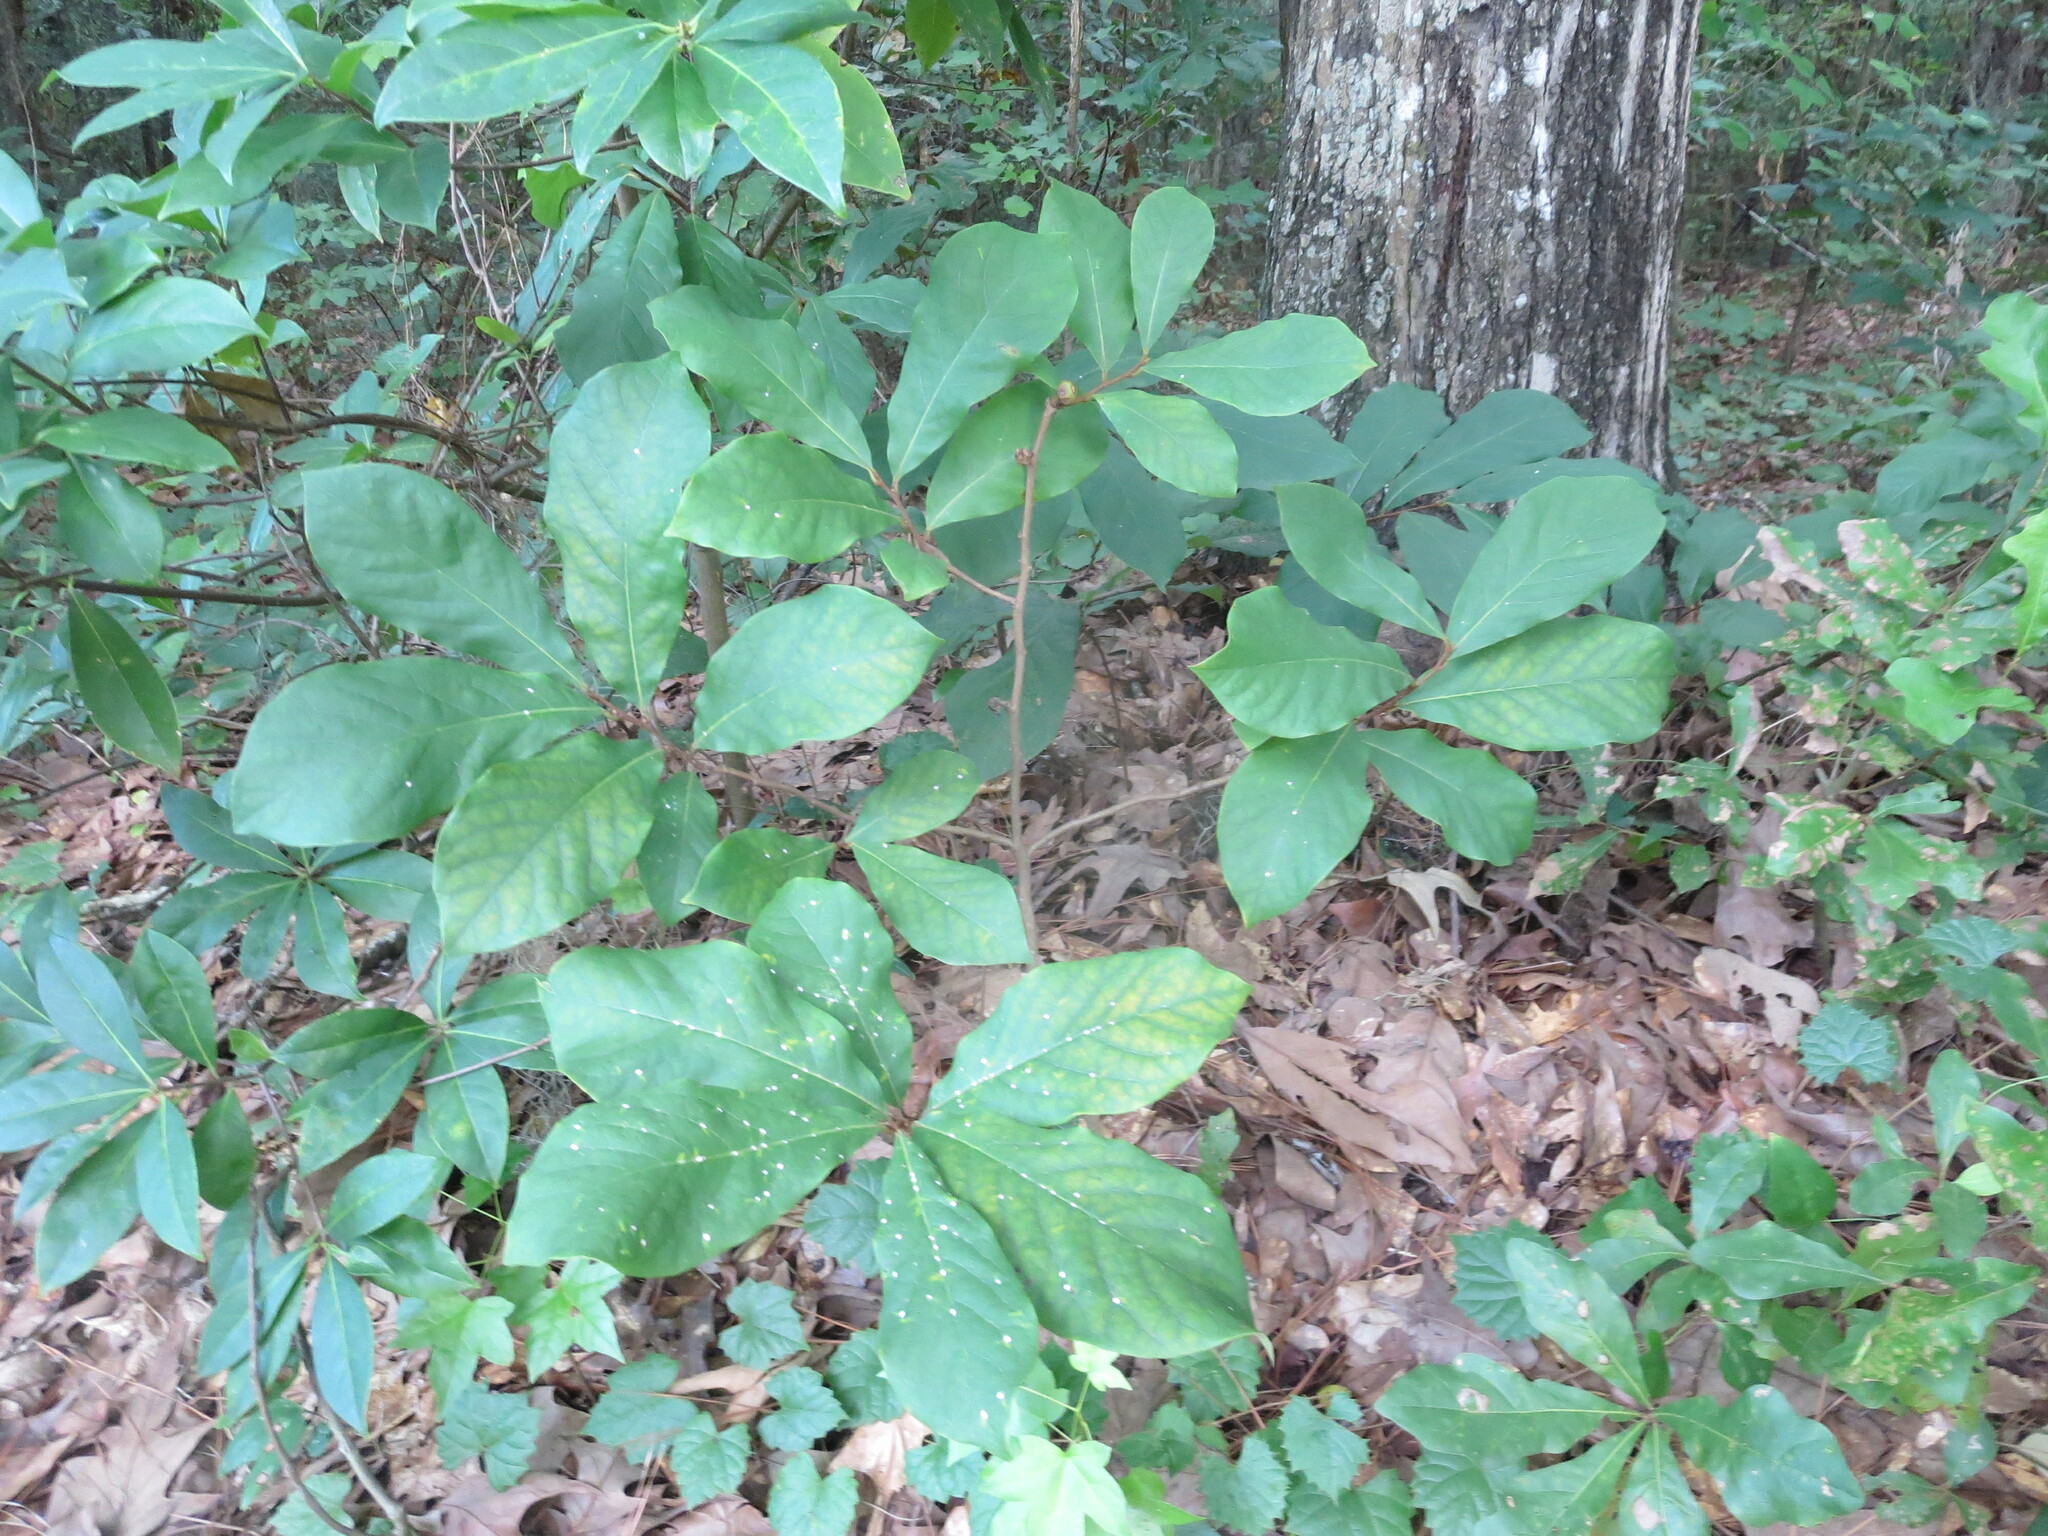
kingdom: Plantae
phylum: Tracheophyta
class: Magnoliopsida
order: Magnoliales
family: Annonaceae
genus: Asimina
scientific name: Asimina parviflora
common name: Dwarf pawpaw
